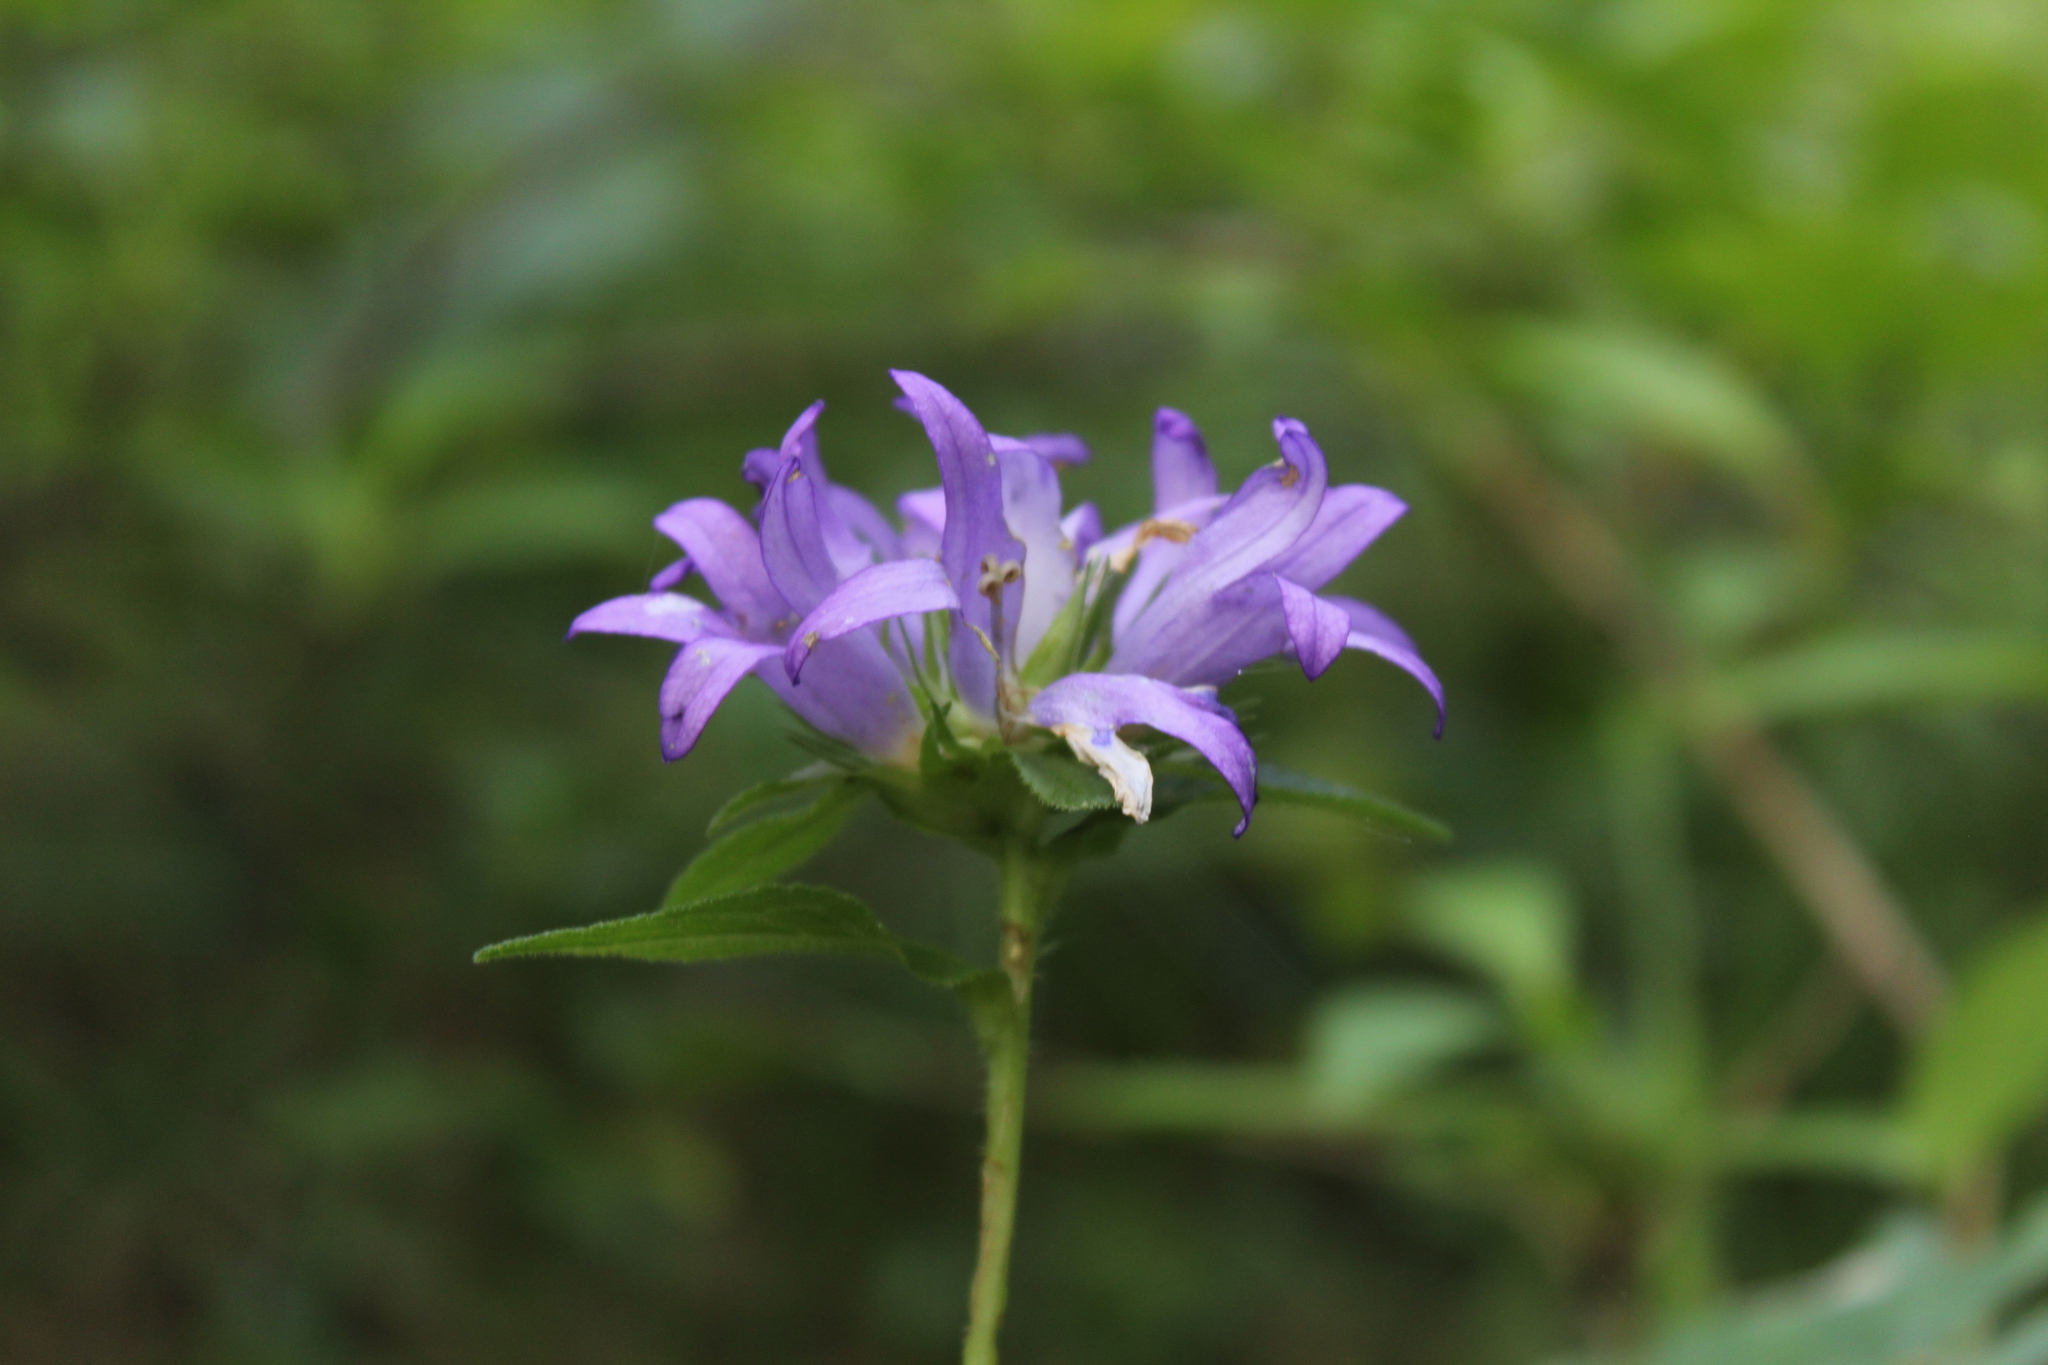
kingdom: Plantae
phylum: Tracheophyta
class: Magnoliopsida
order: Asterales
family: Campanulaceae
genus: Campanula
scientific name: Campanula glomerata
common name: Clustered bellflower
